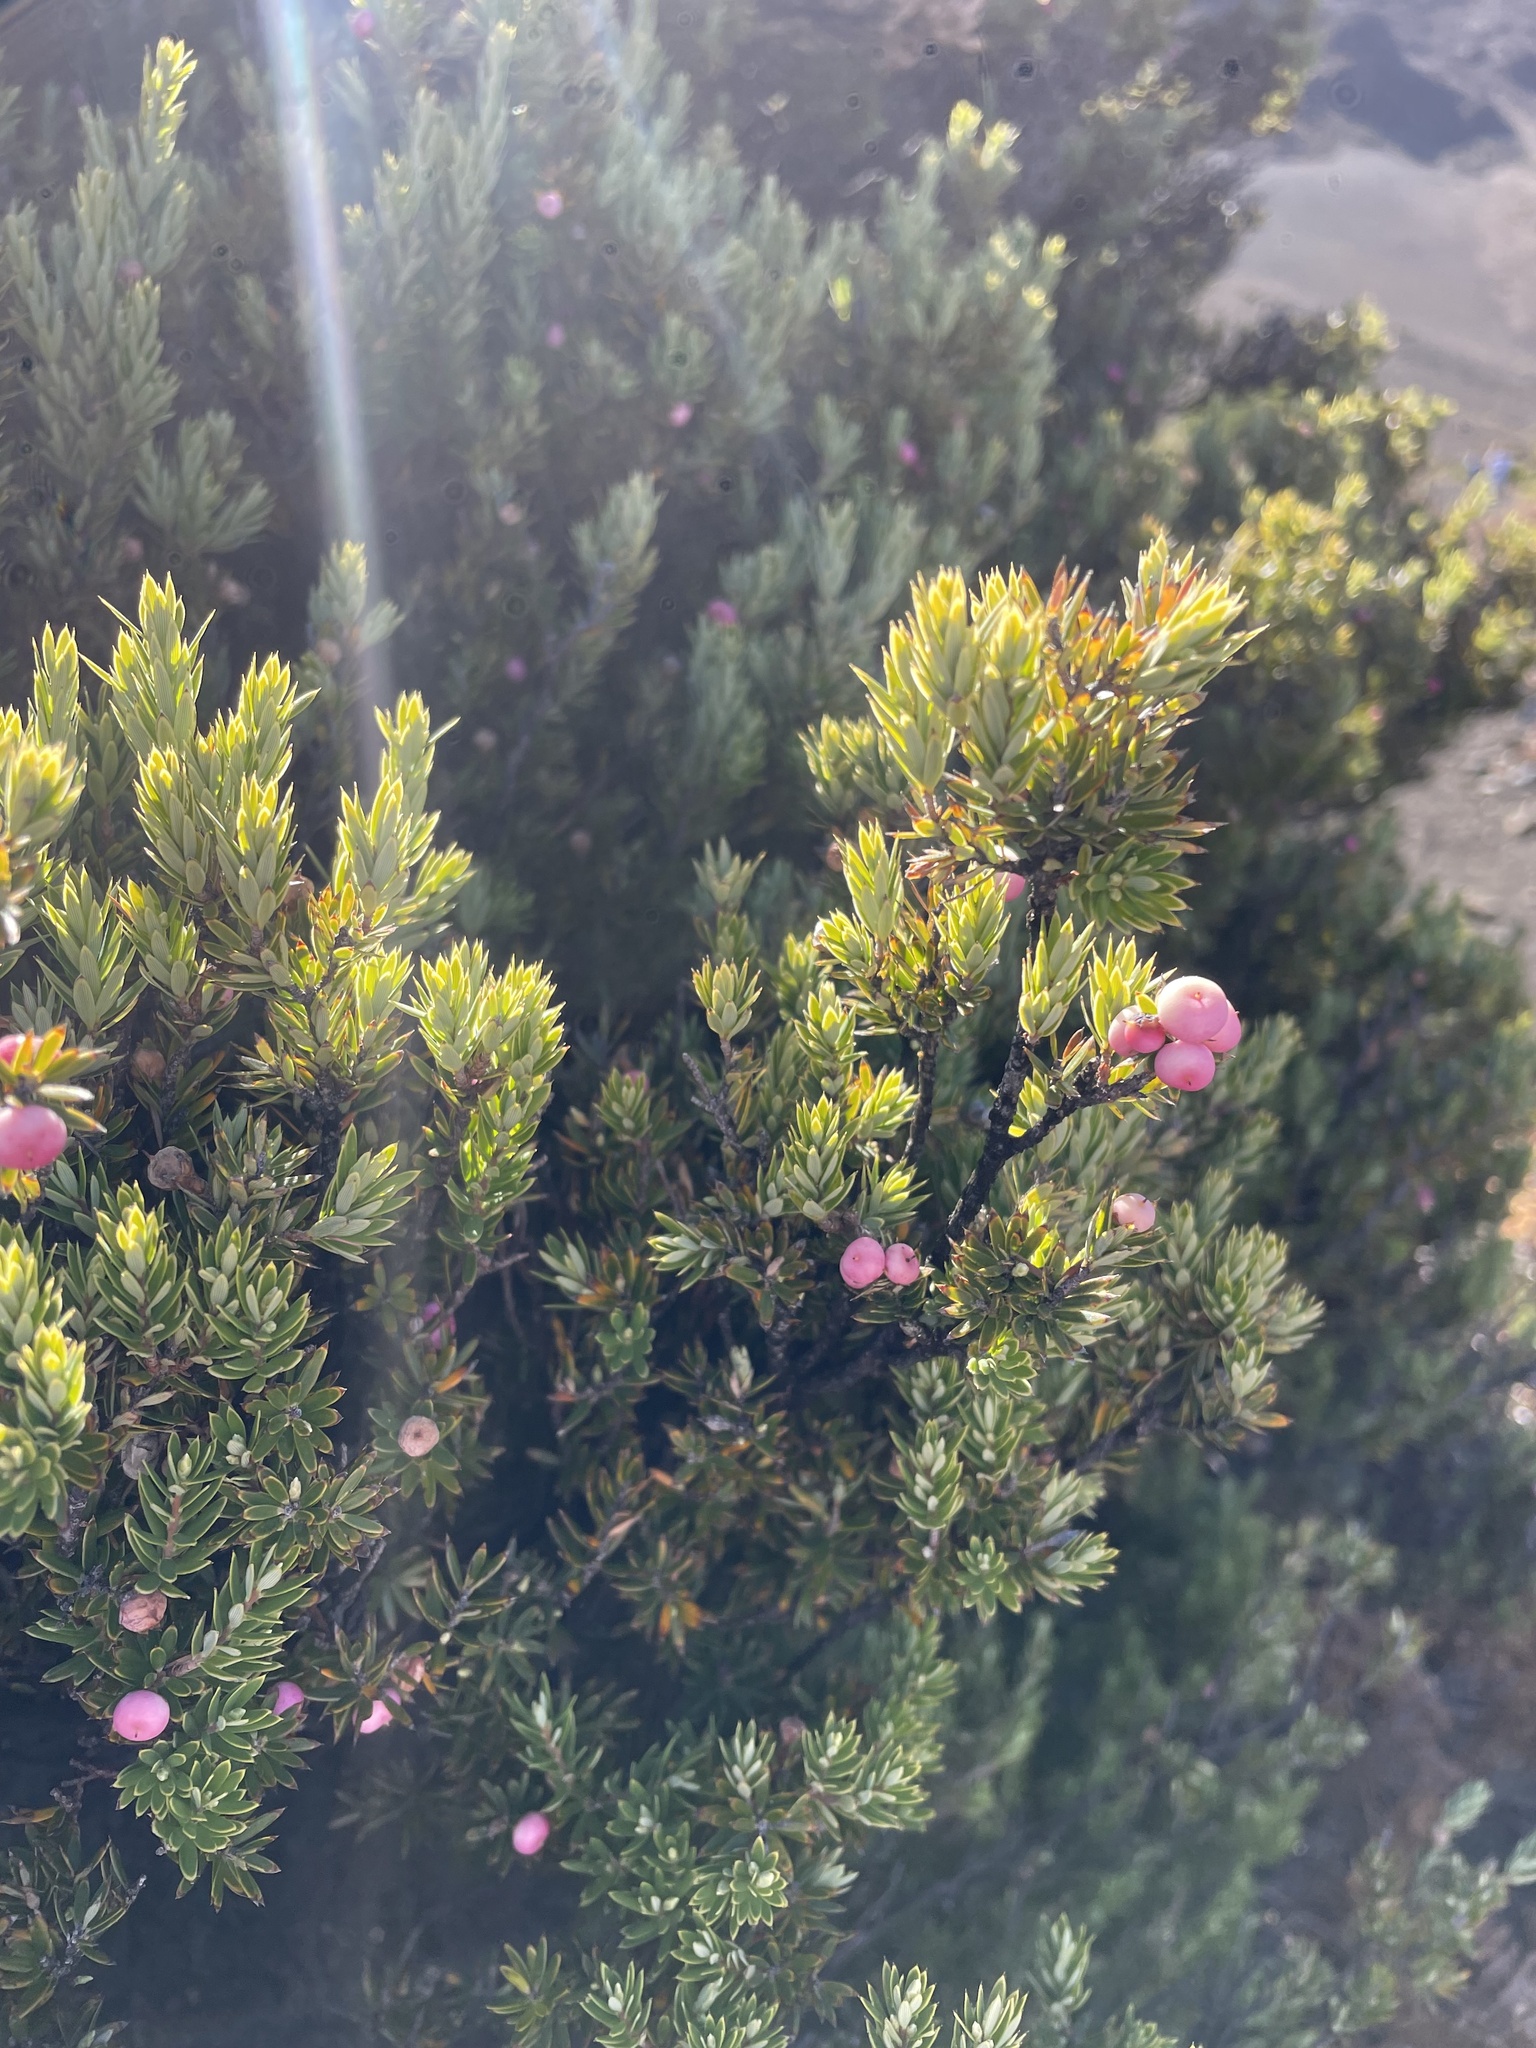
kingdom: Plantae
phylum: Tracheophyta
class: Magnoliopsida
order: Ericales
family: Ericaceae
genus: Leptecophylla
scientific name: Leptecophylla tameiameiae
